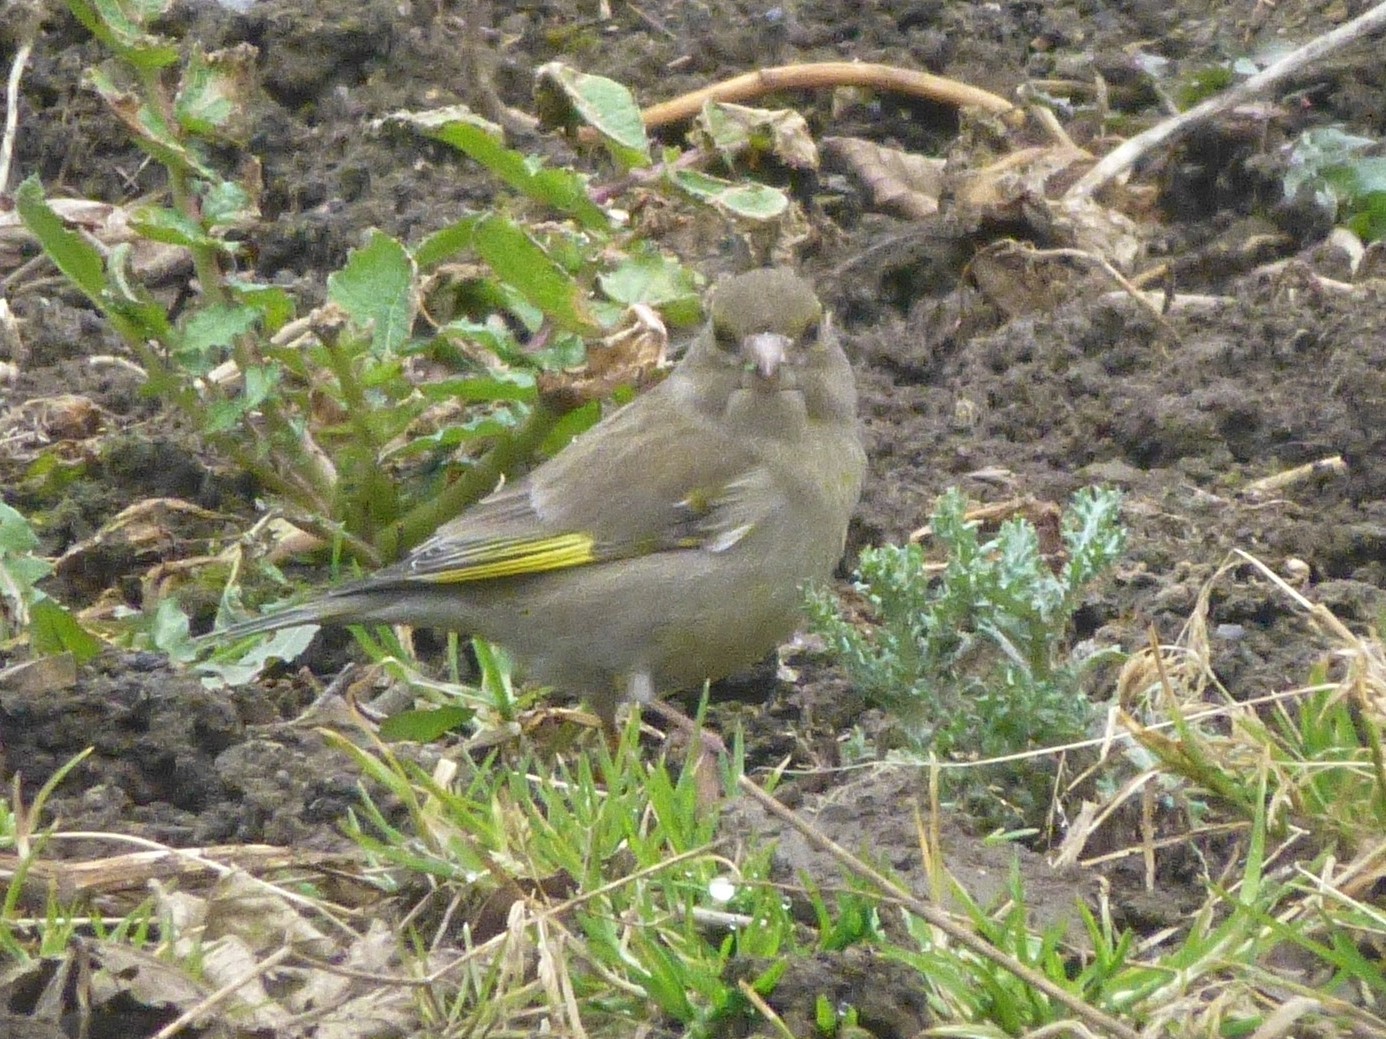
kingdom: Plantae
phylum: Tracheophyta
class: Liliopsida
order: Poales
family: Poaceae
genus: Chloris
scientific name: Chloris chloris
